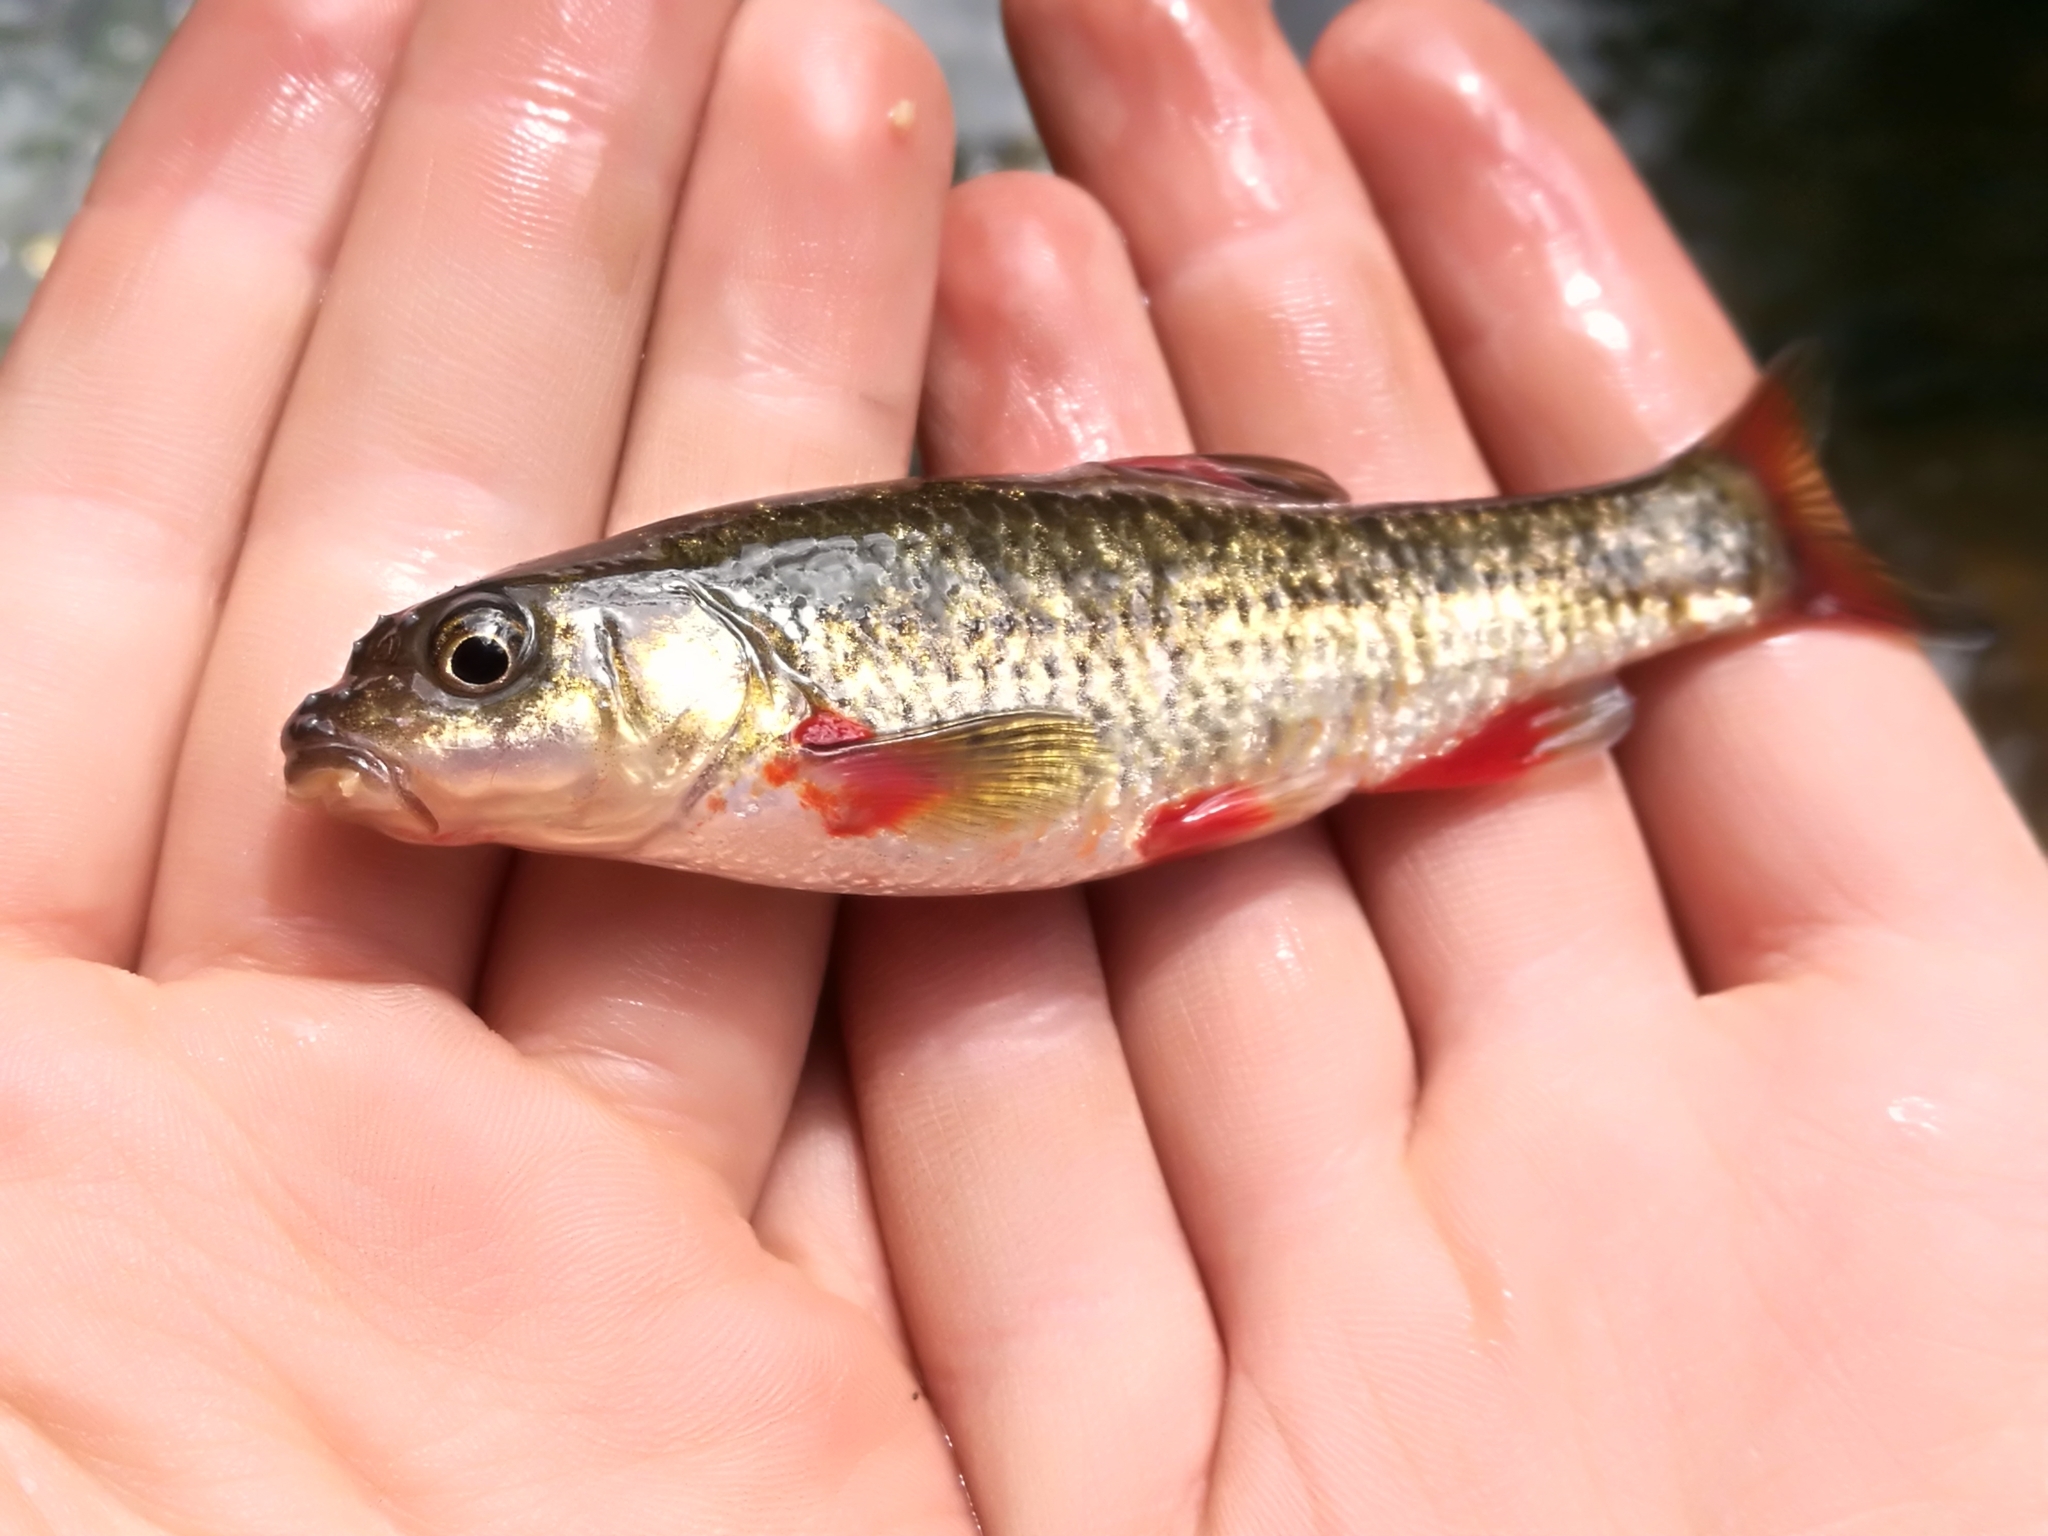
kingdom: Animalia
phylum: Chordata
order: Cypriniformes
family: Cyprinidae
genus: Pseudobarbus
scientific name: Pseudobarbus swartzi
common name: Gamtoos river redfin
